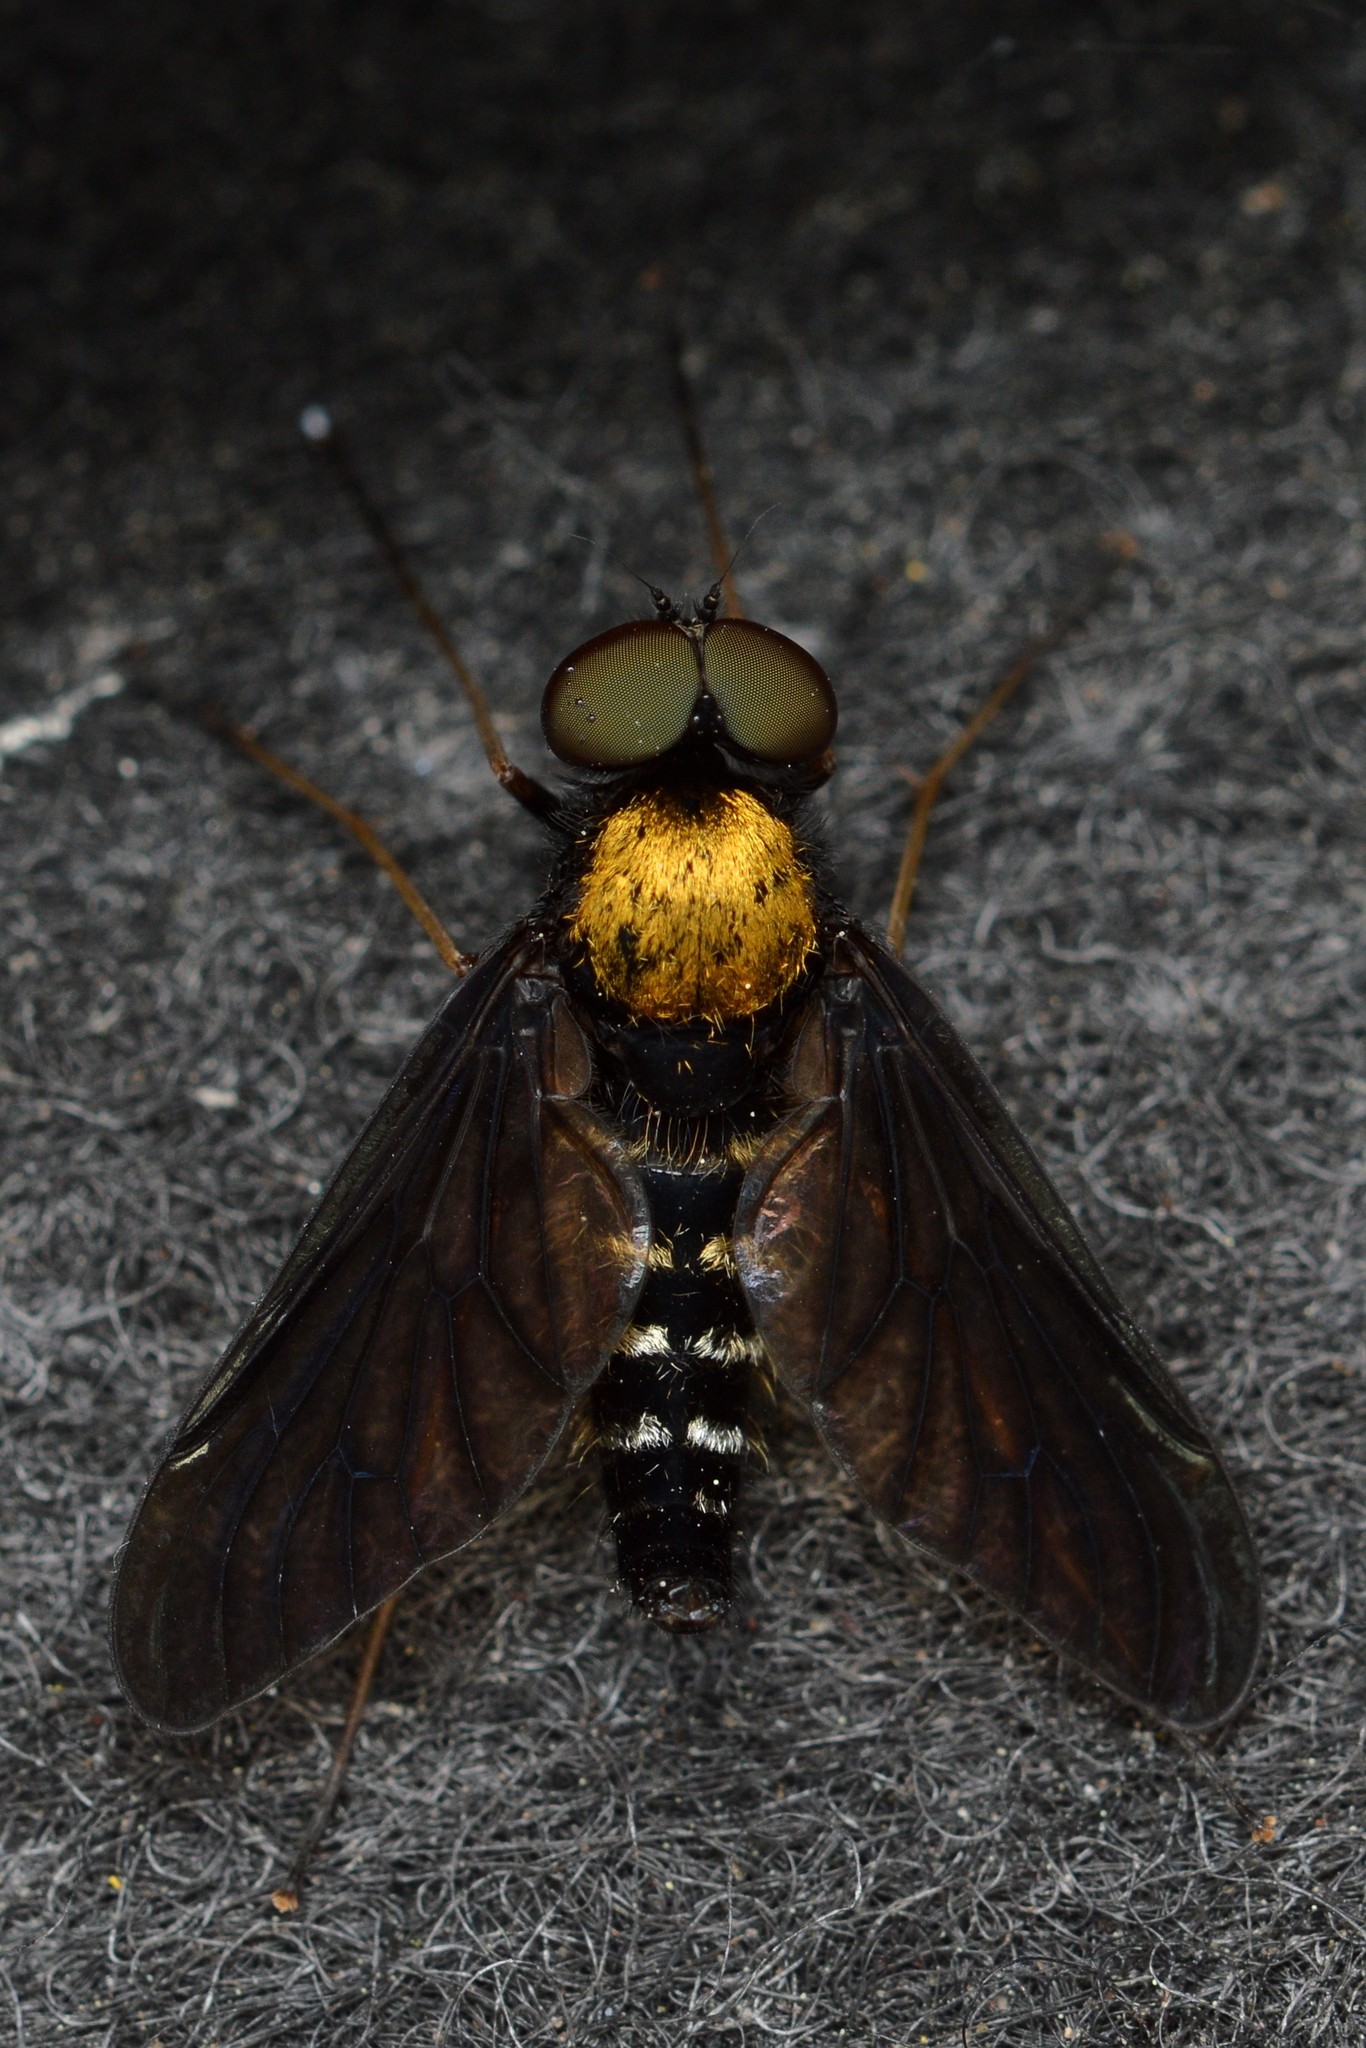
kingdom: Animalia
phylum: Arthropoda
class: Insecta
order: Diptera
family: Rhagionidae
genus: Chrysopilus
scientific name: Chrysopilus thoracicus
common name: Golden-backed snipe fly
